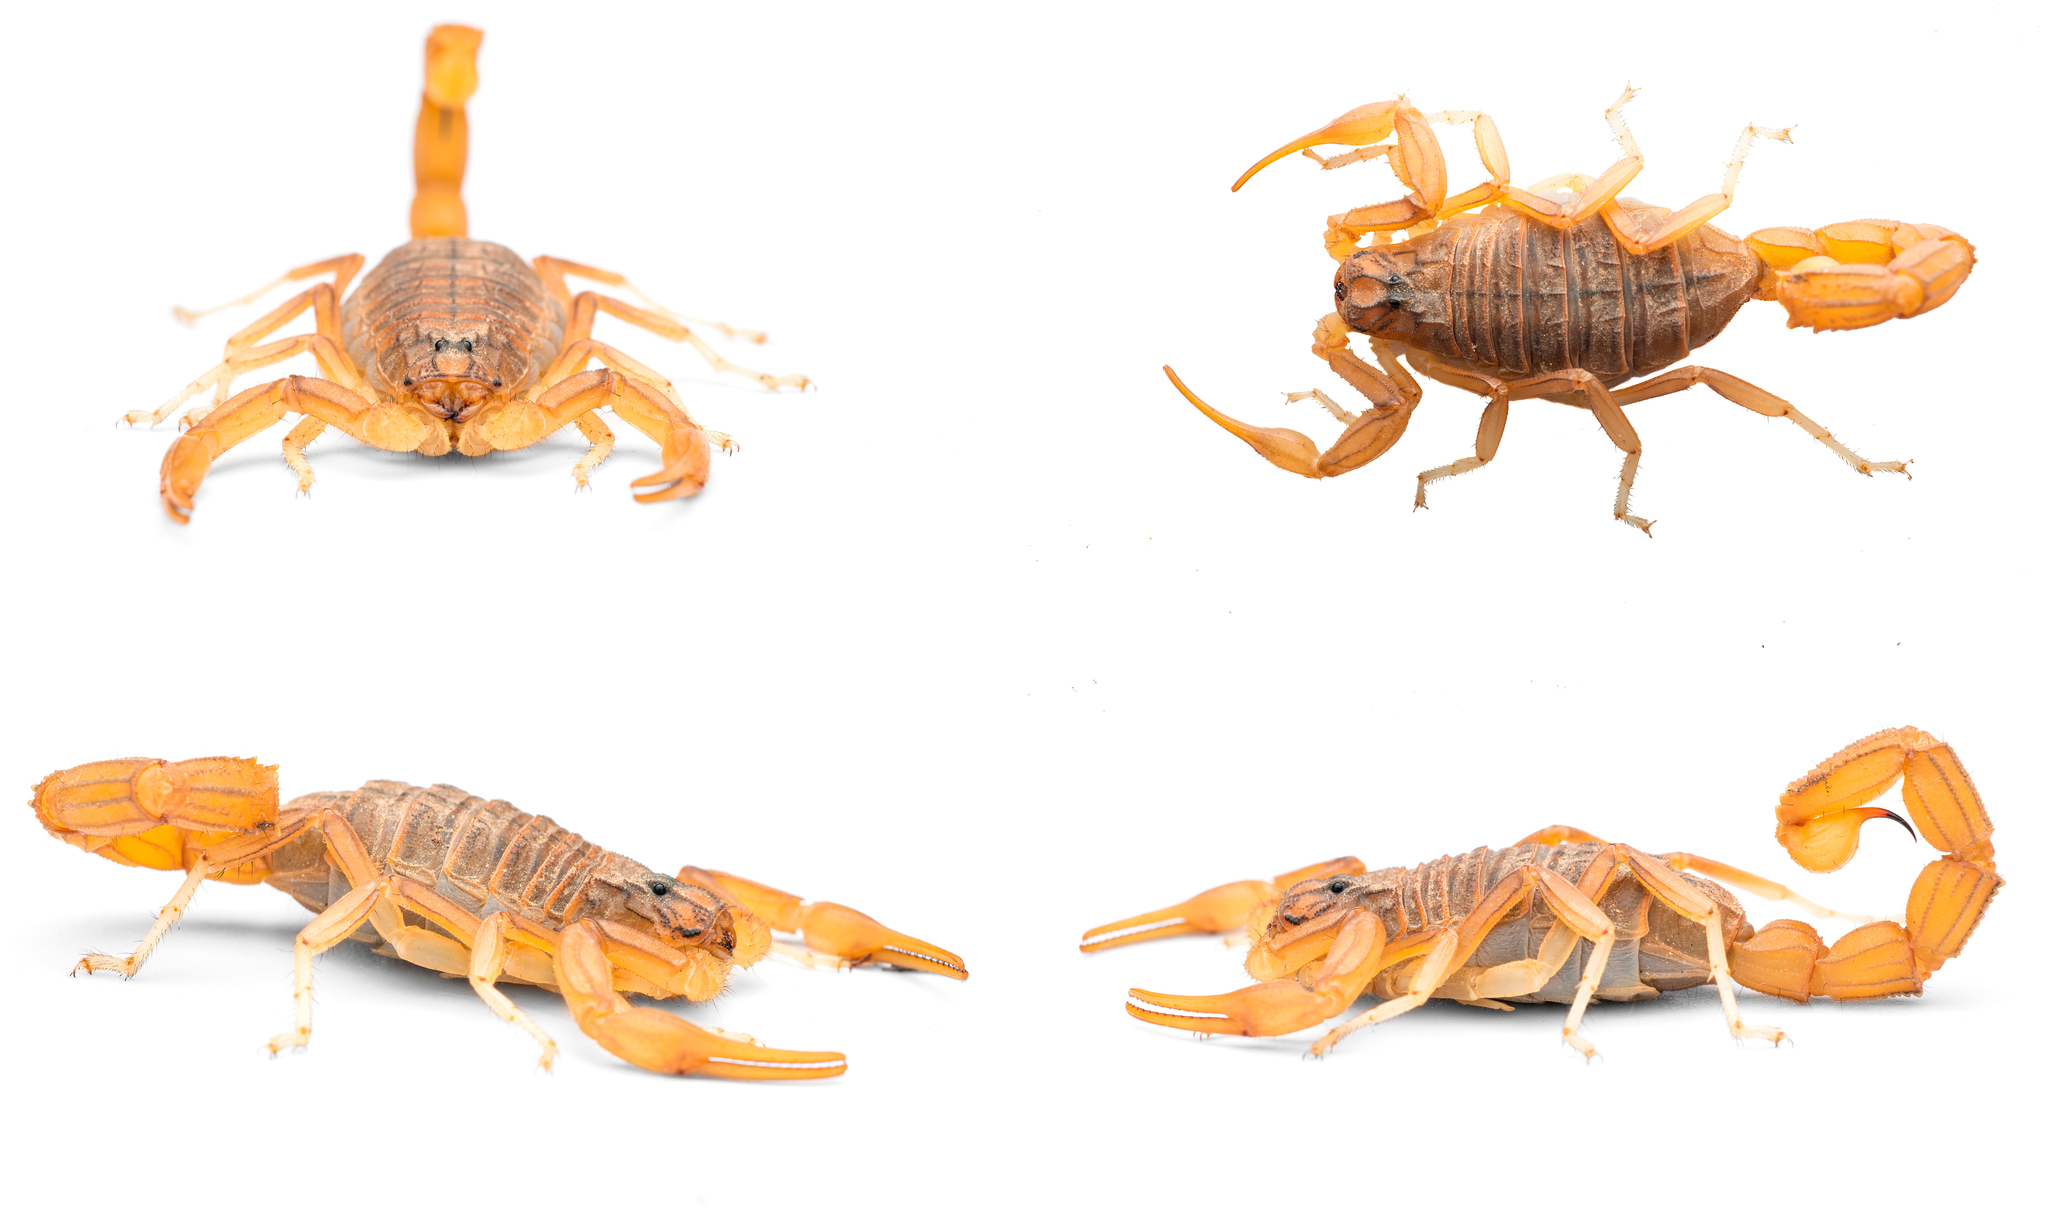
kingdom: Animalia
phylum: Arthropoda
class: Arachnida
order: Scorpiones
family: Buthidae
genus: Buthus
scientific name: Buthus elongatus
